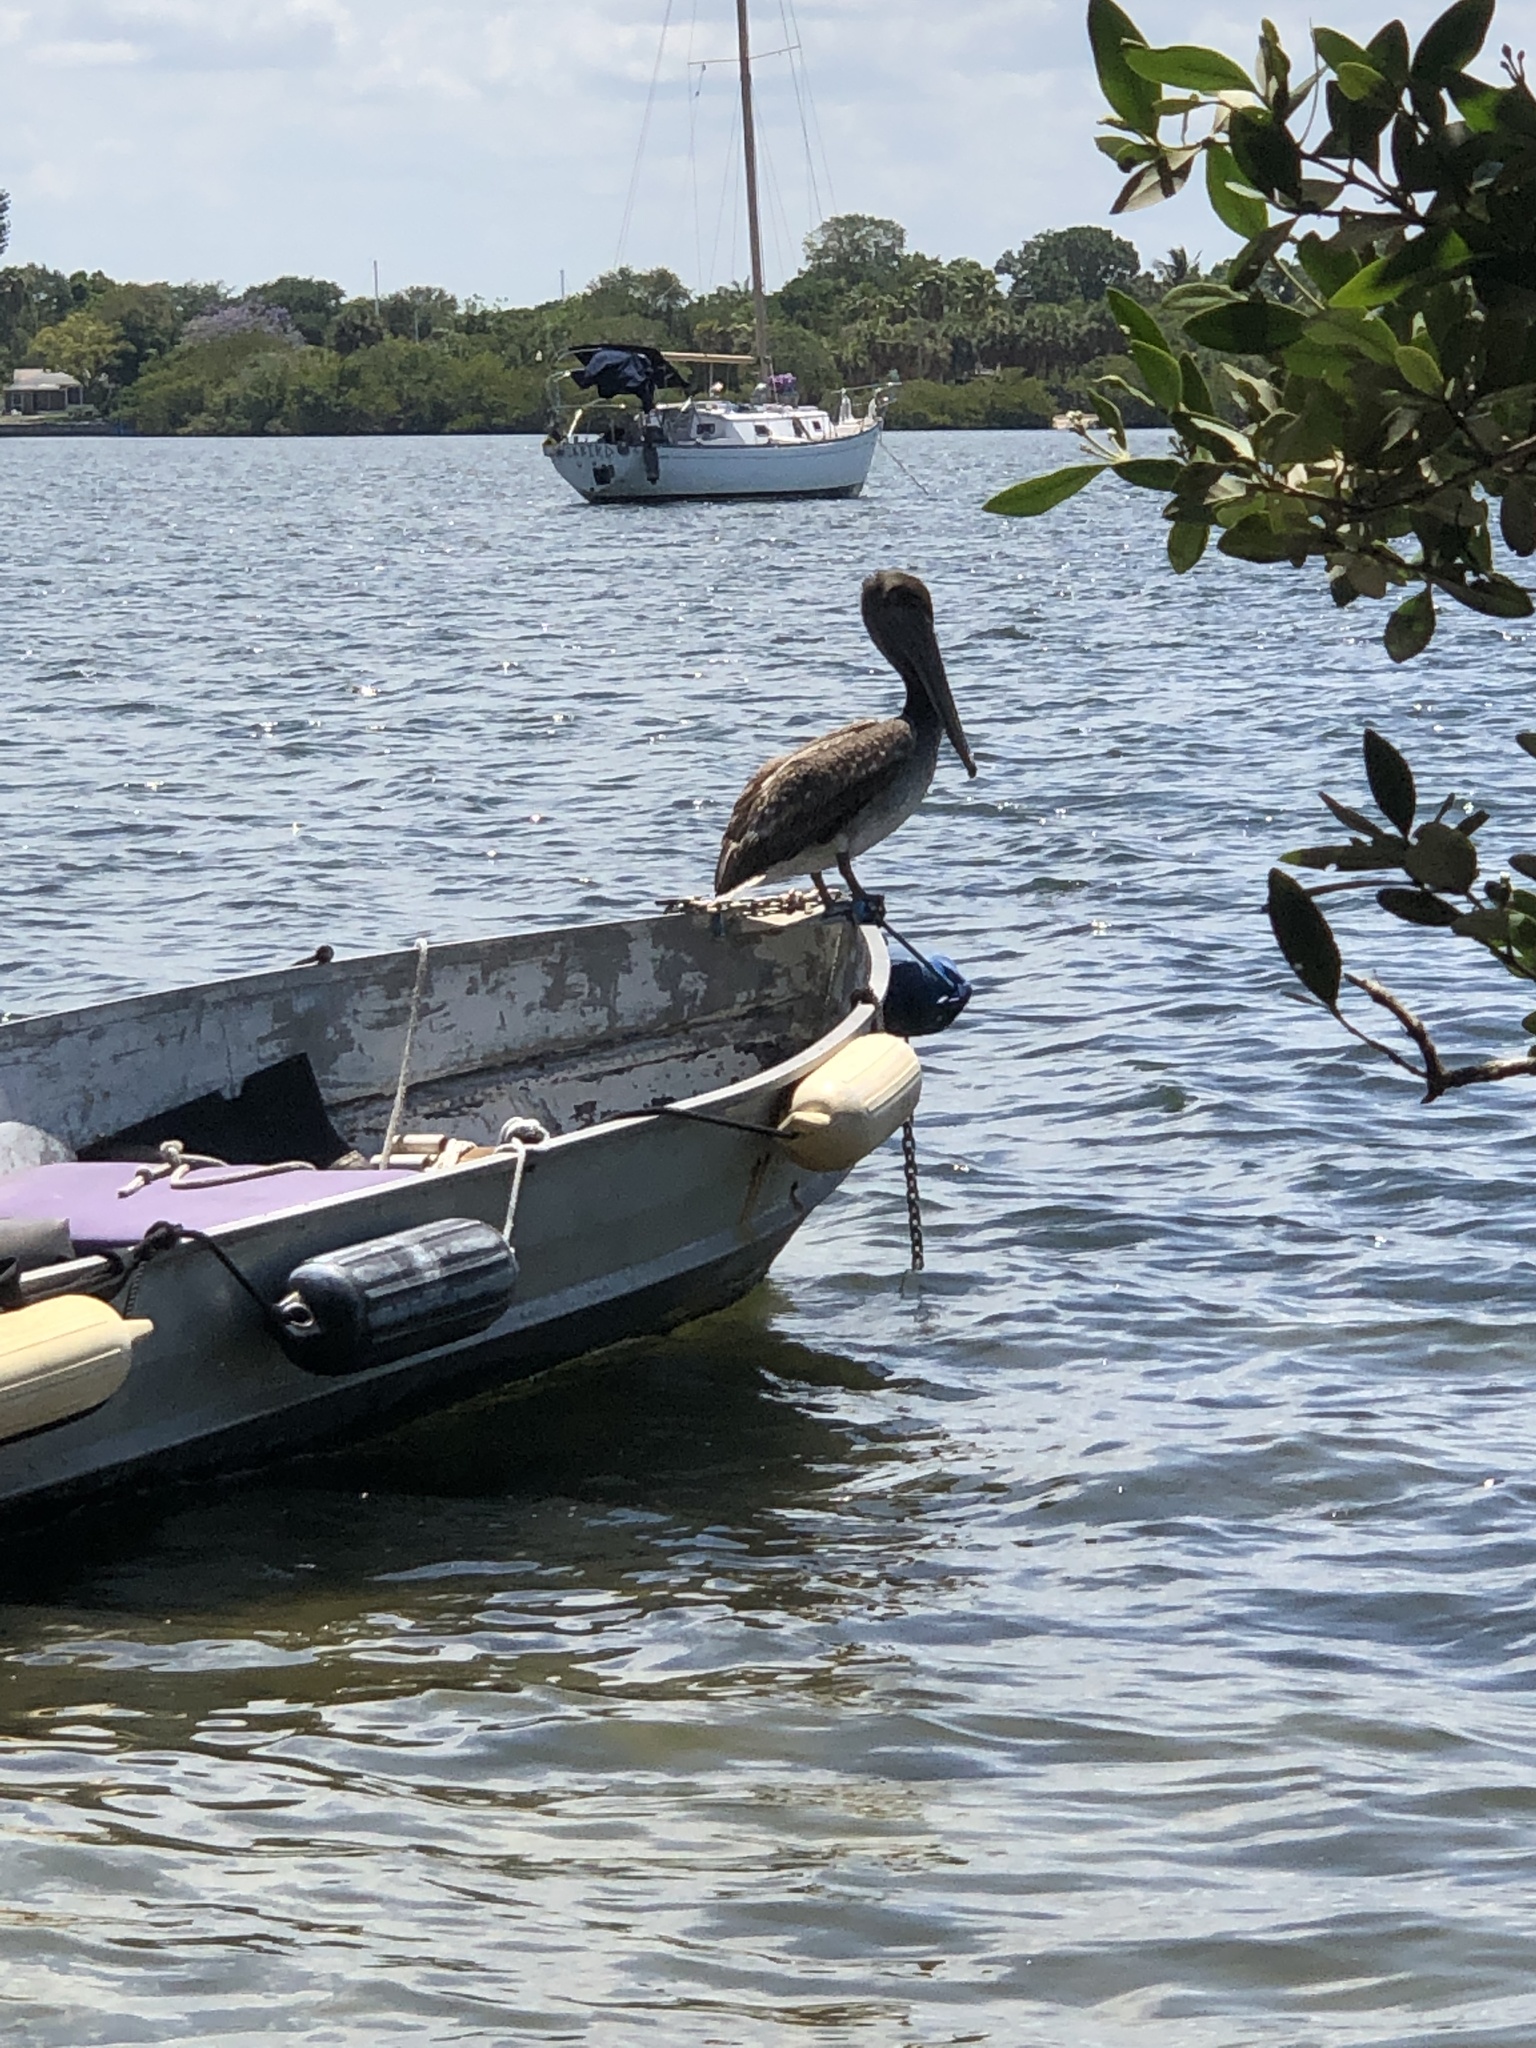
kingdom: Animalia
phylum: Chordata
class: Aves
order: Pelecaniformes
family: Pelecanidae
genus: Pelecanus
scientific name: Pelecanus occidentalis
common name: Brown pelican
